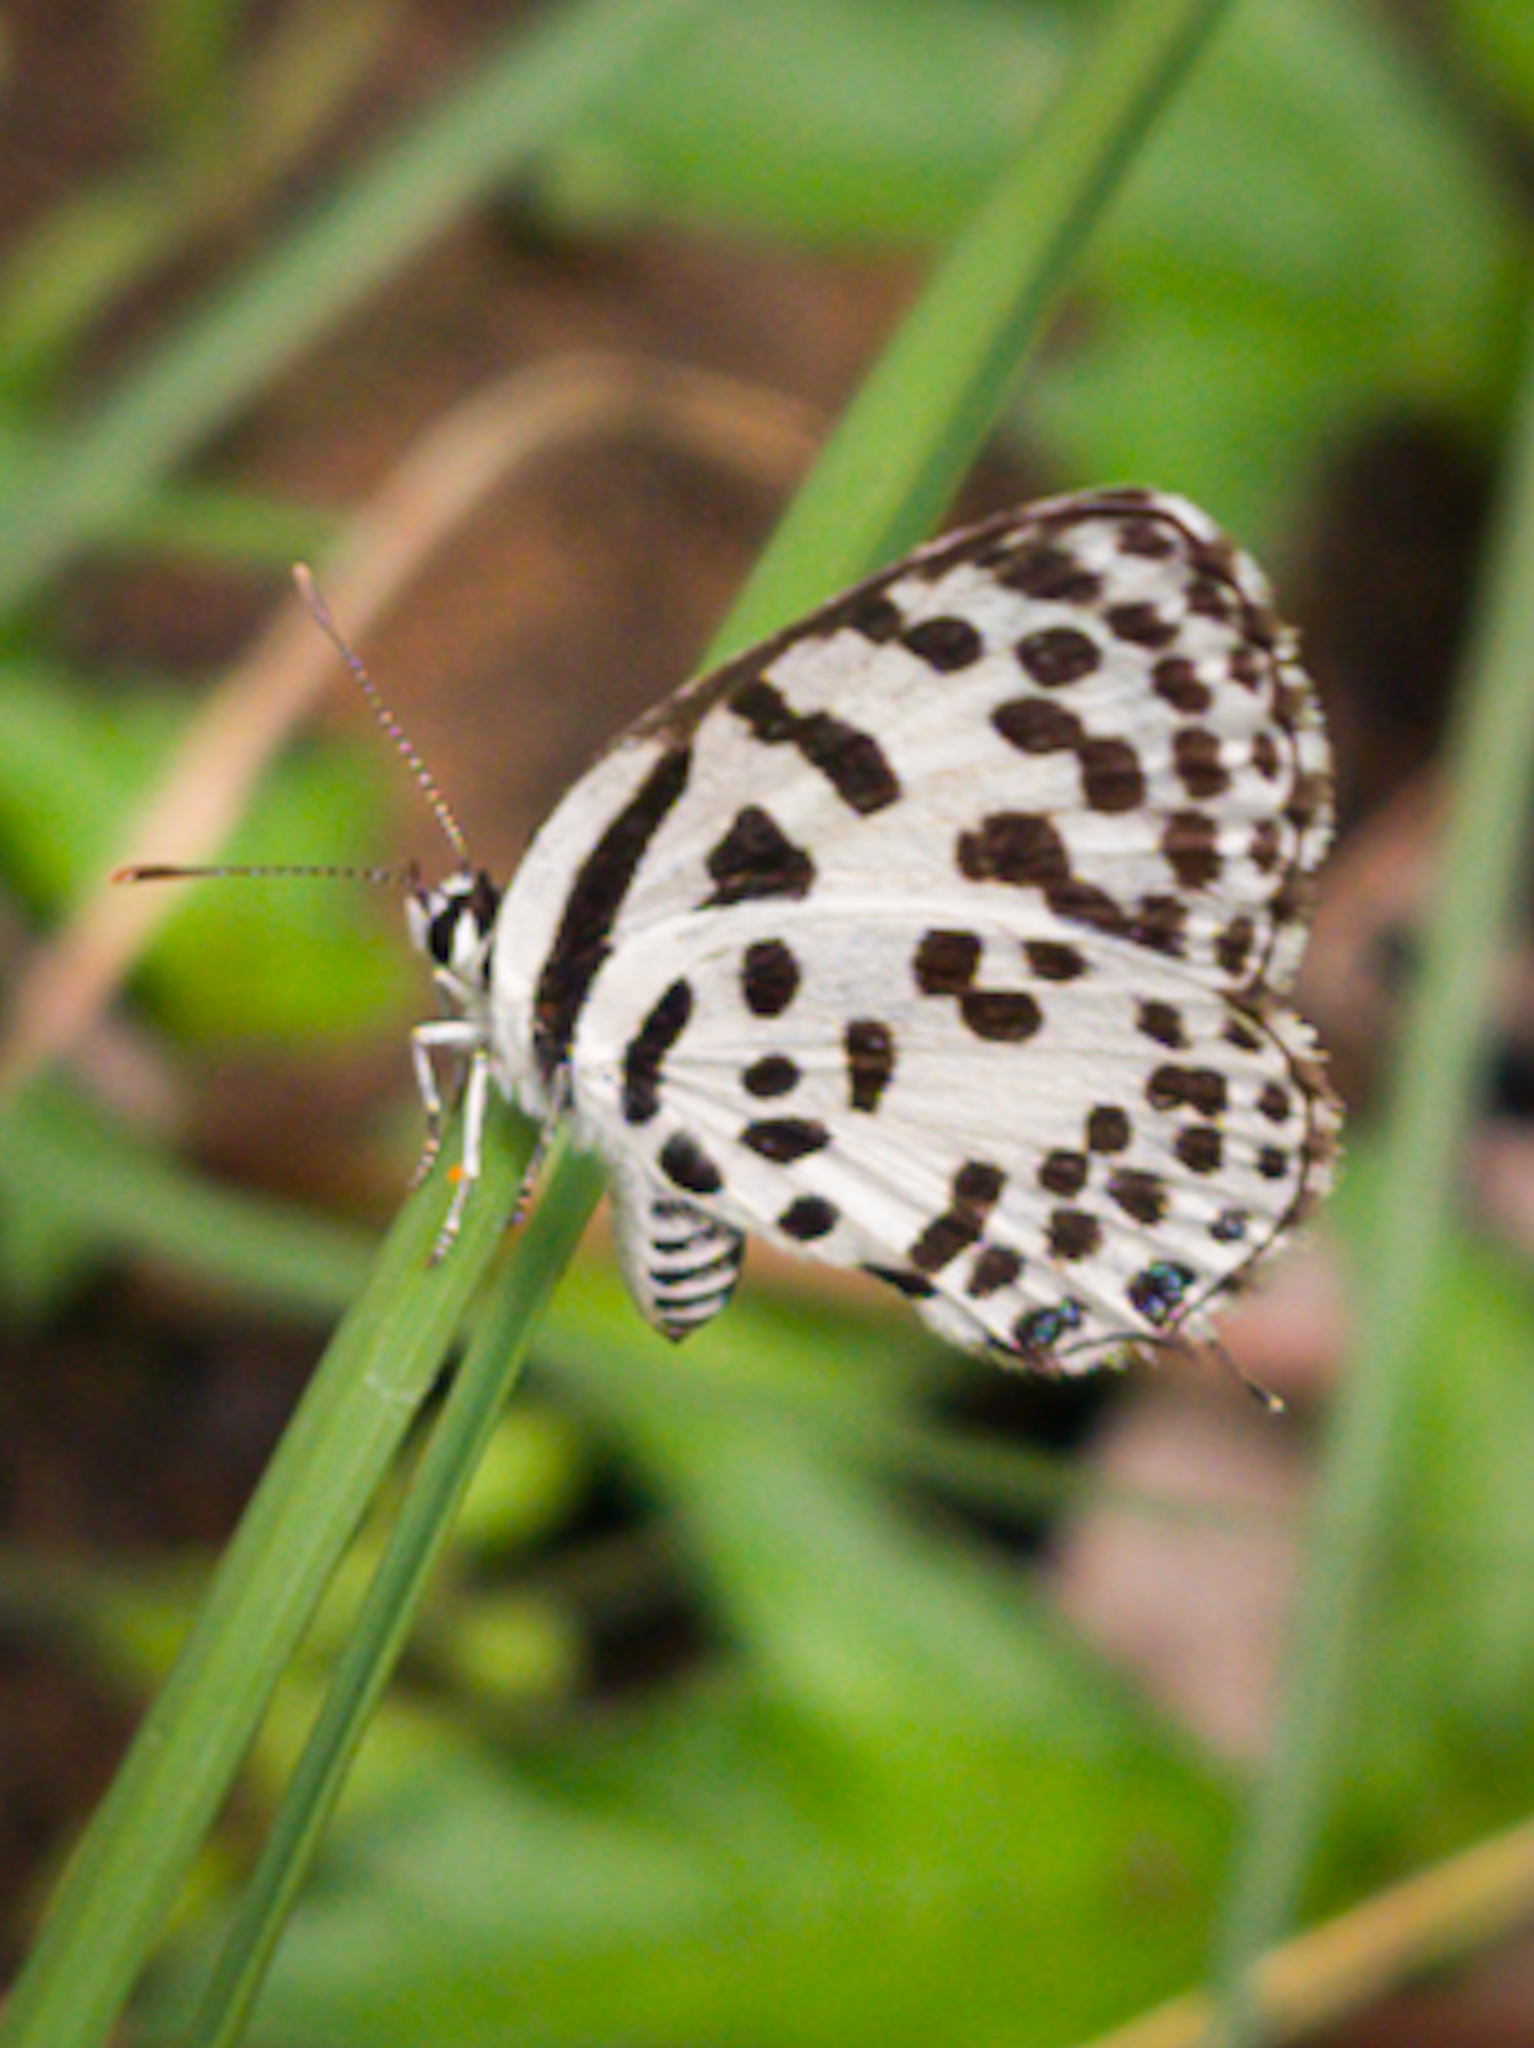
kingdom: Animalia
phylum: Arthropoda
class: Insecta
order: Lepidoptera
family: Lycaenidae
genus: Castalius
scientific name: Castalius rosimon
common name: Common pierrot
